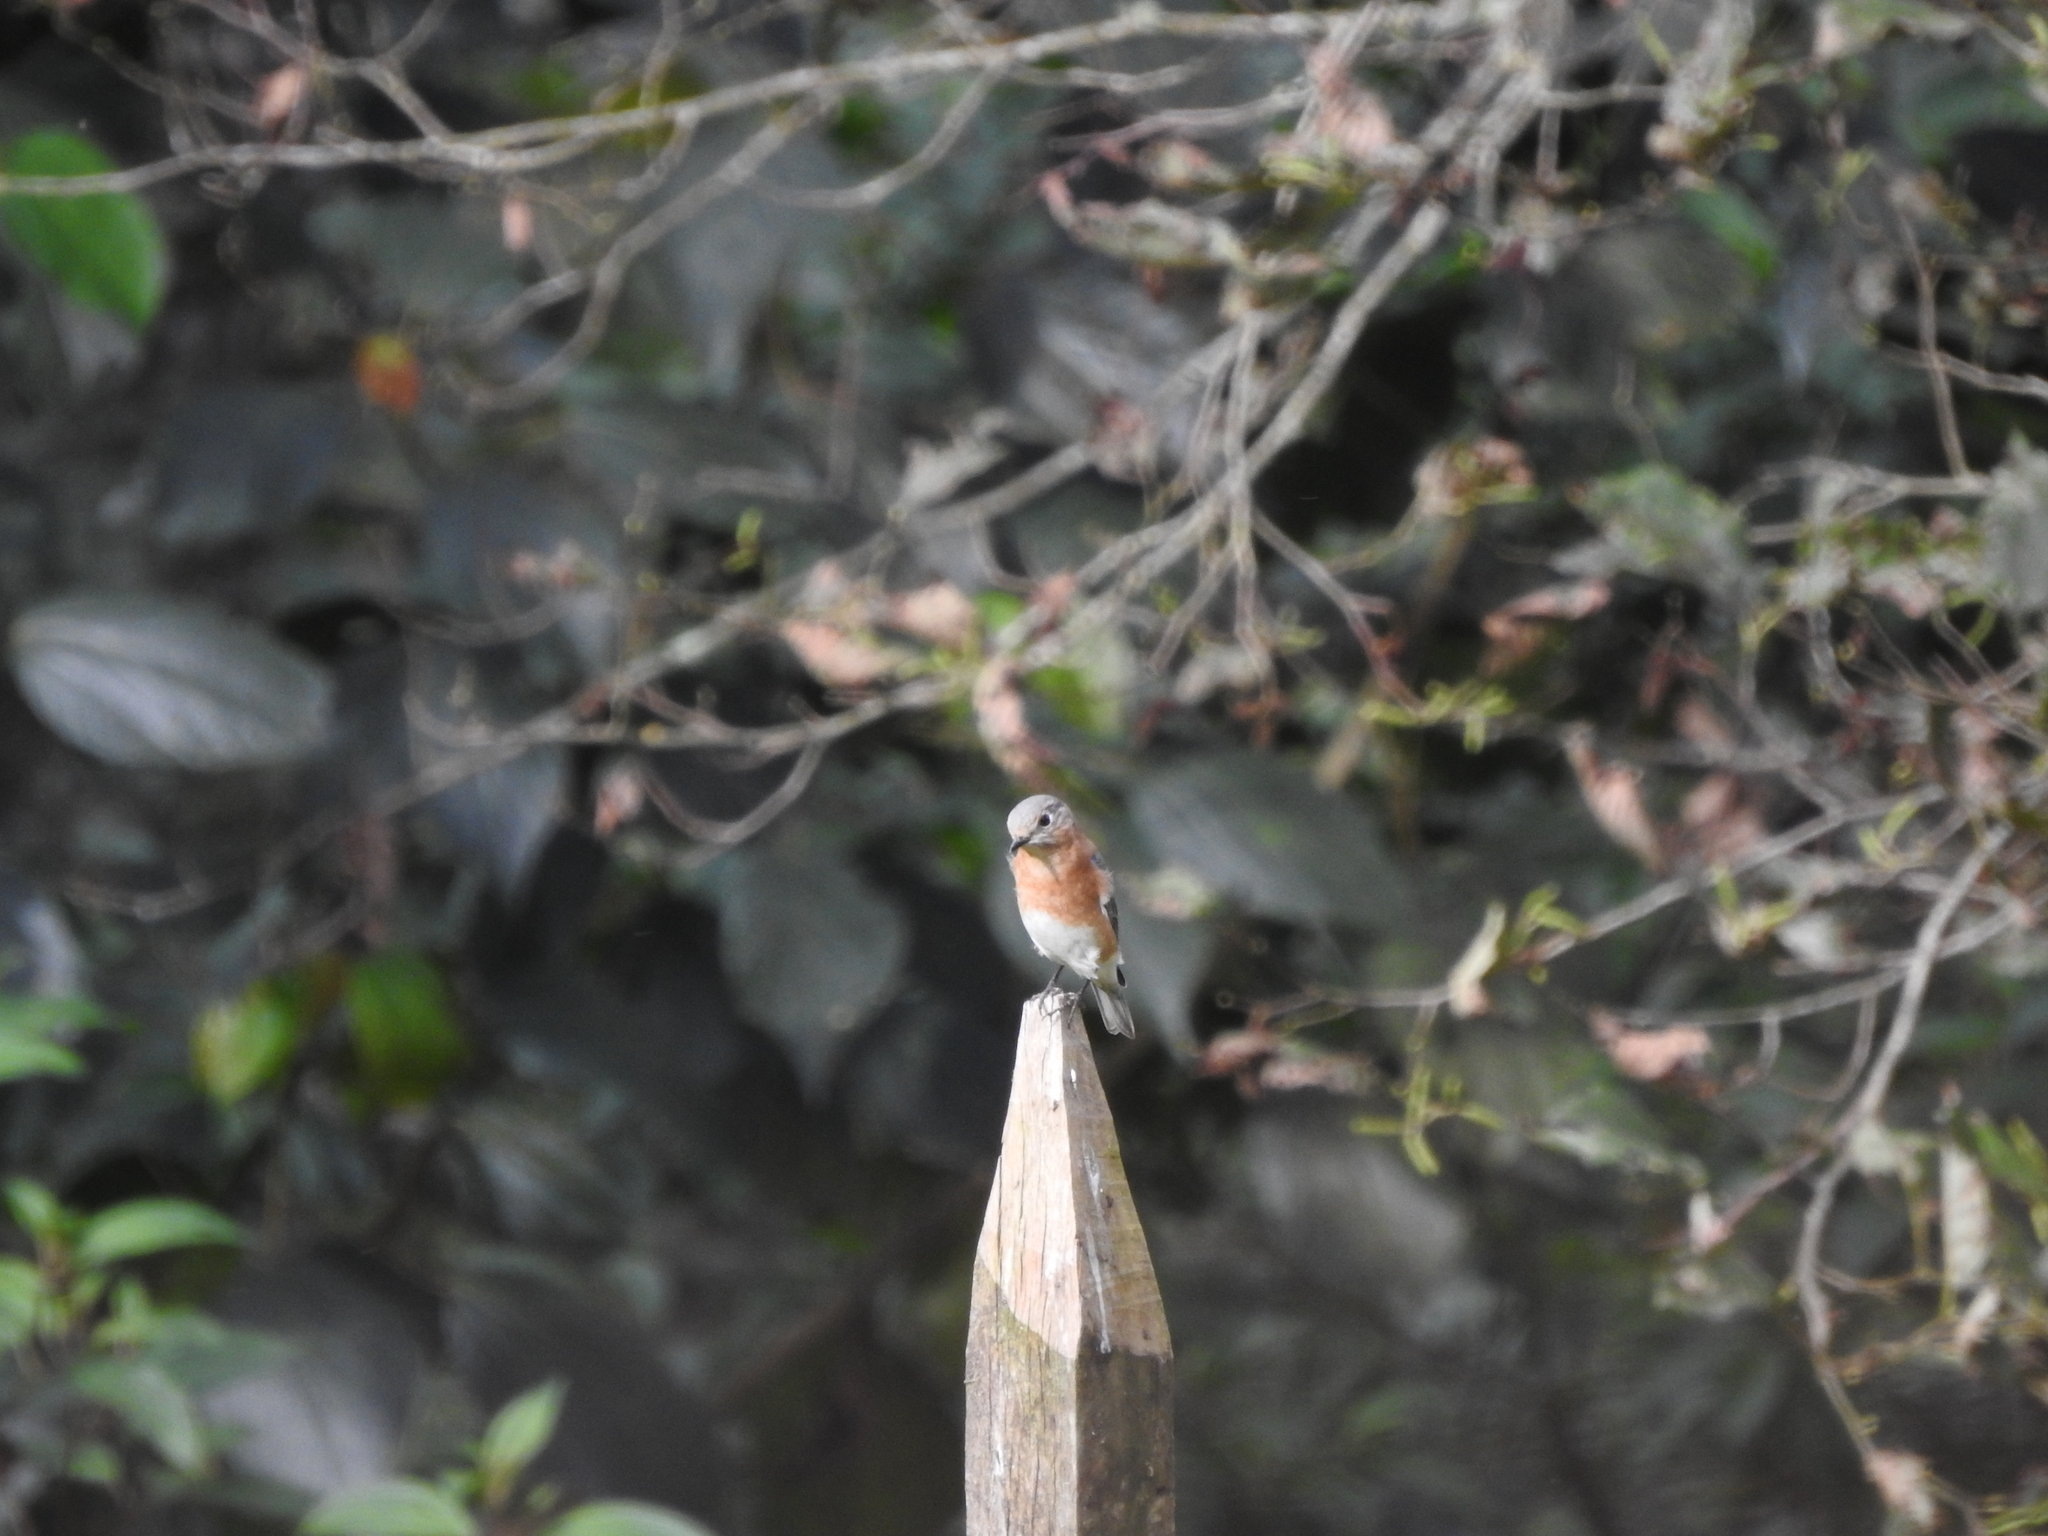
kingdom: Animalia
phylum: Chordata
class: Aves
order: Passeriformes
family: Turdidae
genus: Sialia
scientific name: Sialia sialis
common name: Eastern bluebird
